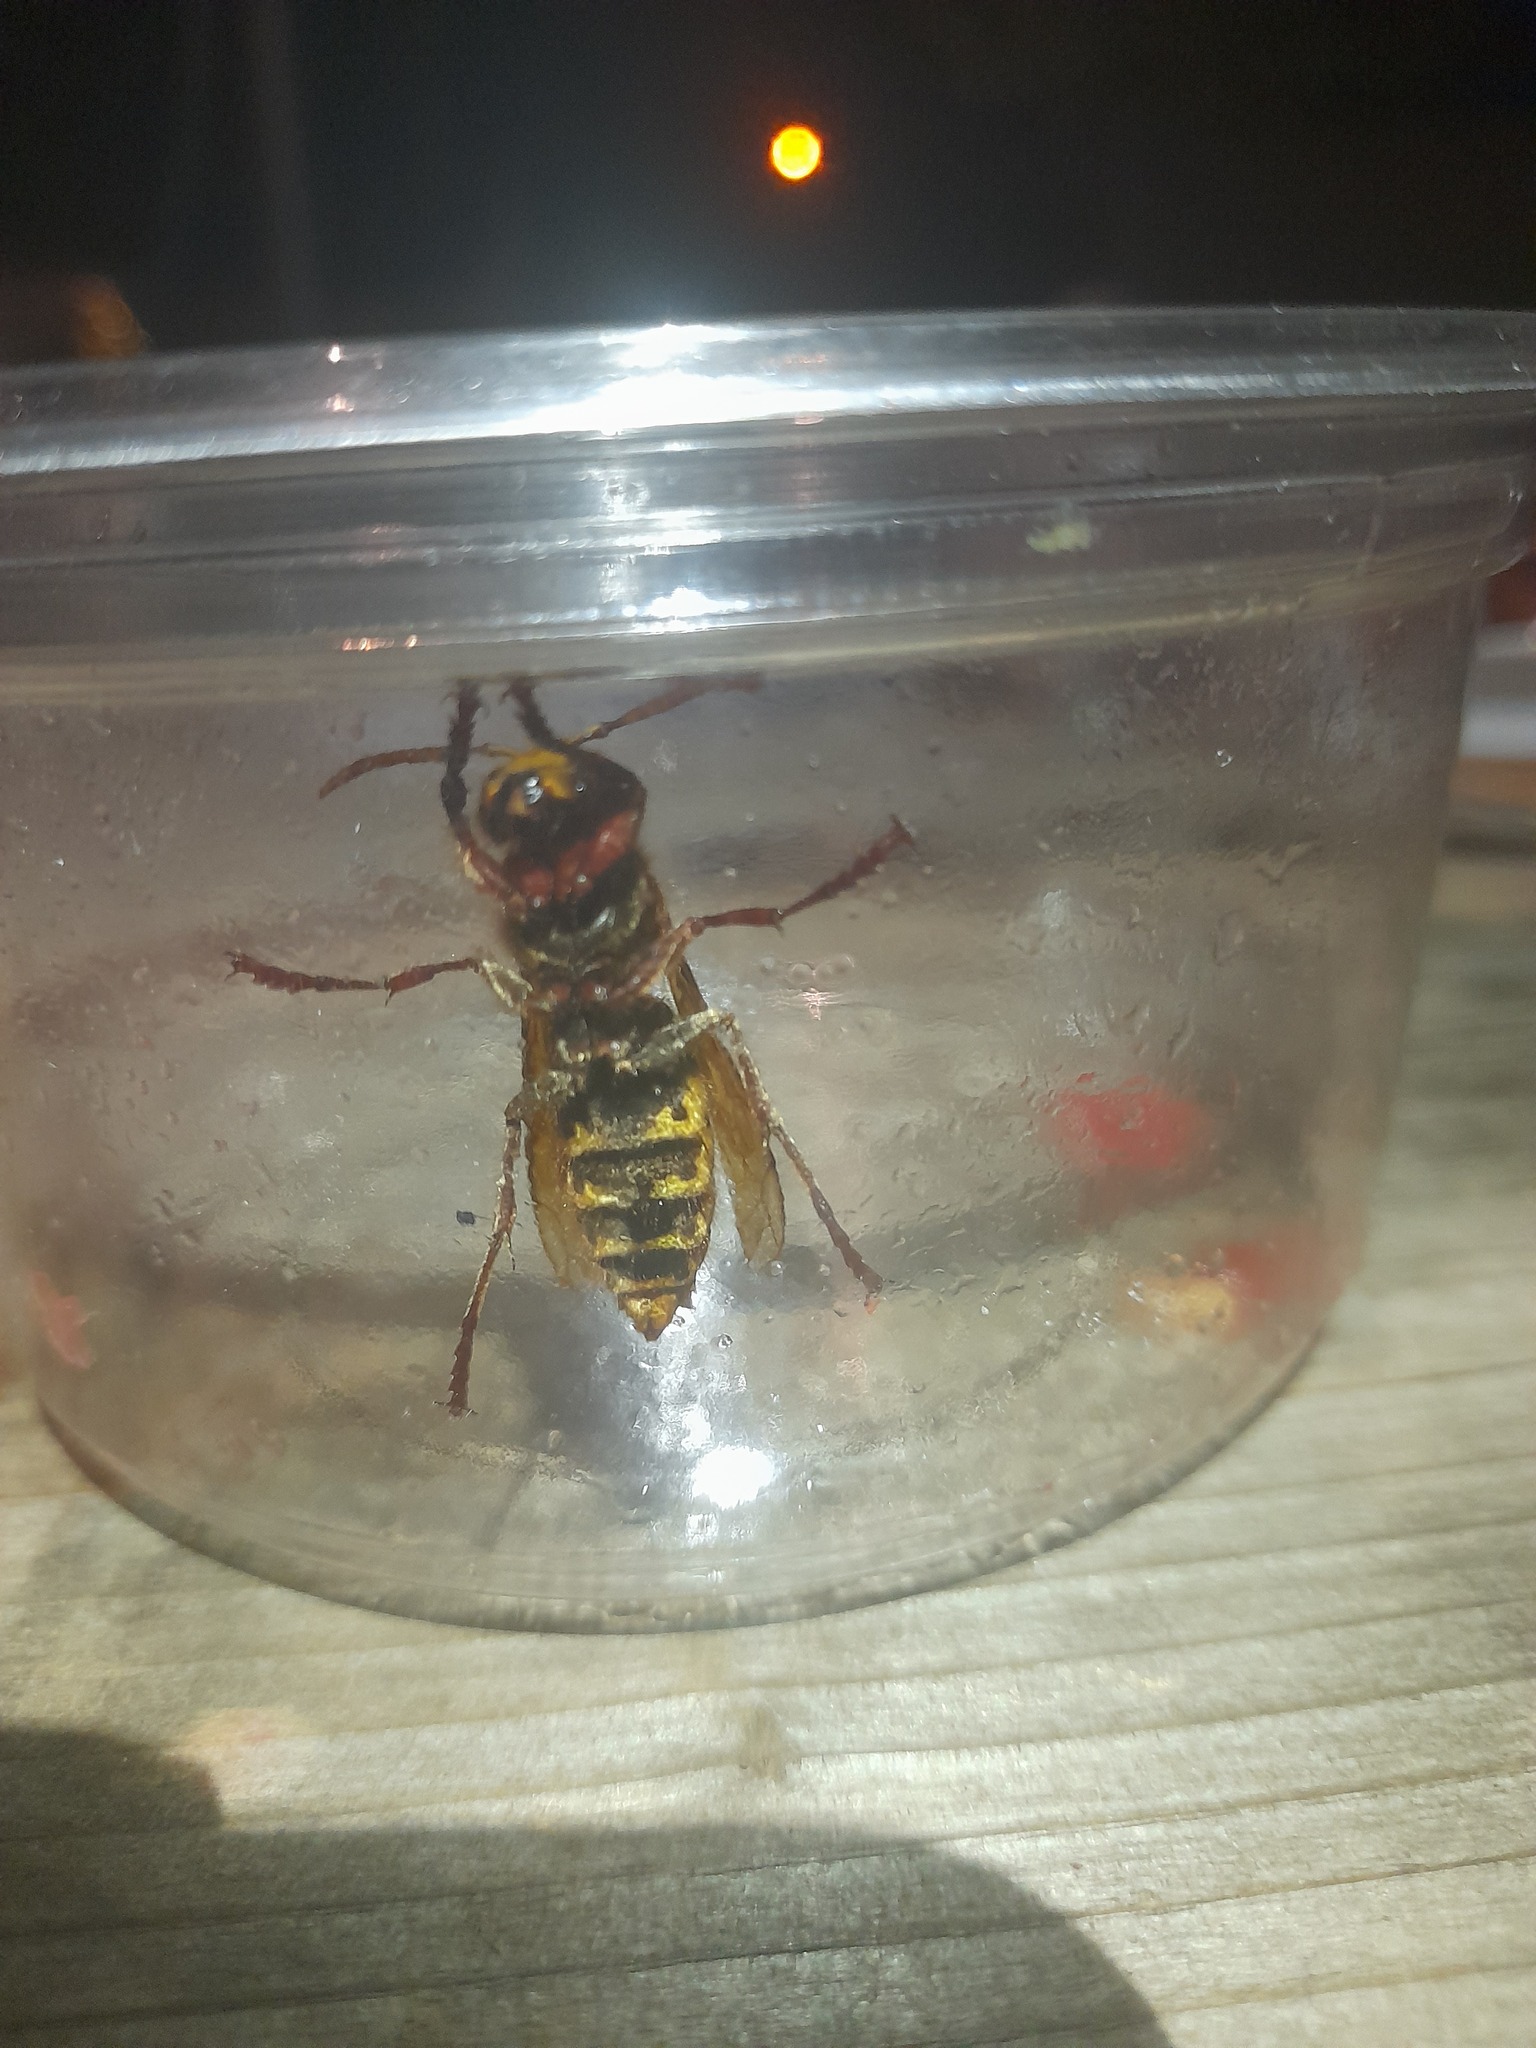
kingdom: Animalia
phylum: Arthropoda
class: Insecta
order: Hymenoptera
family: Vespidae
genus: Vespa
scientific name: Vespa crabro
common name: Hornet
